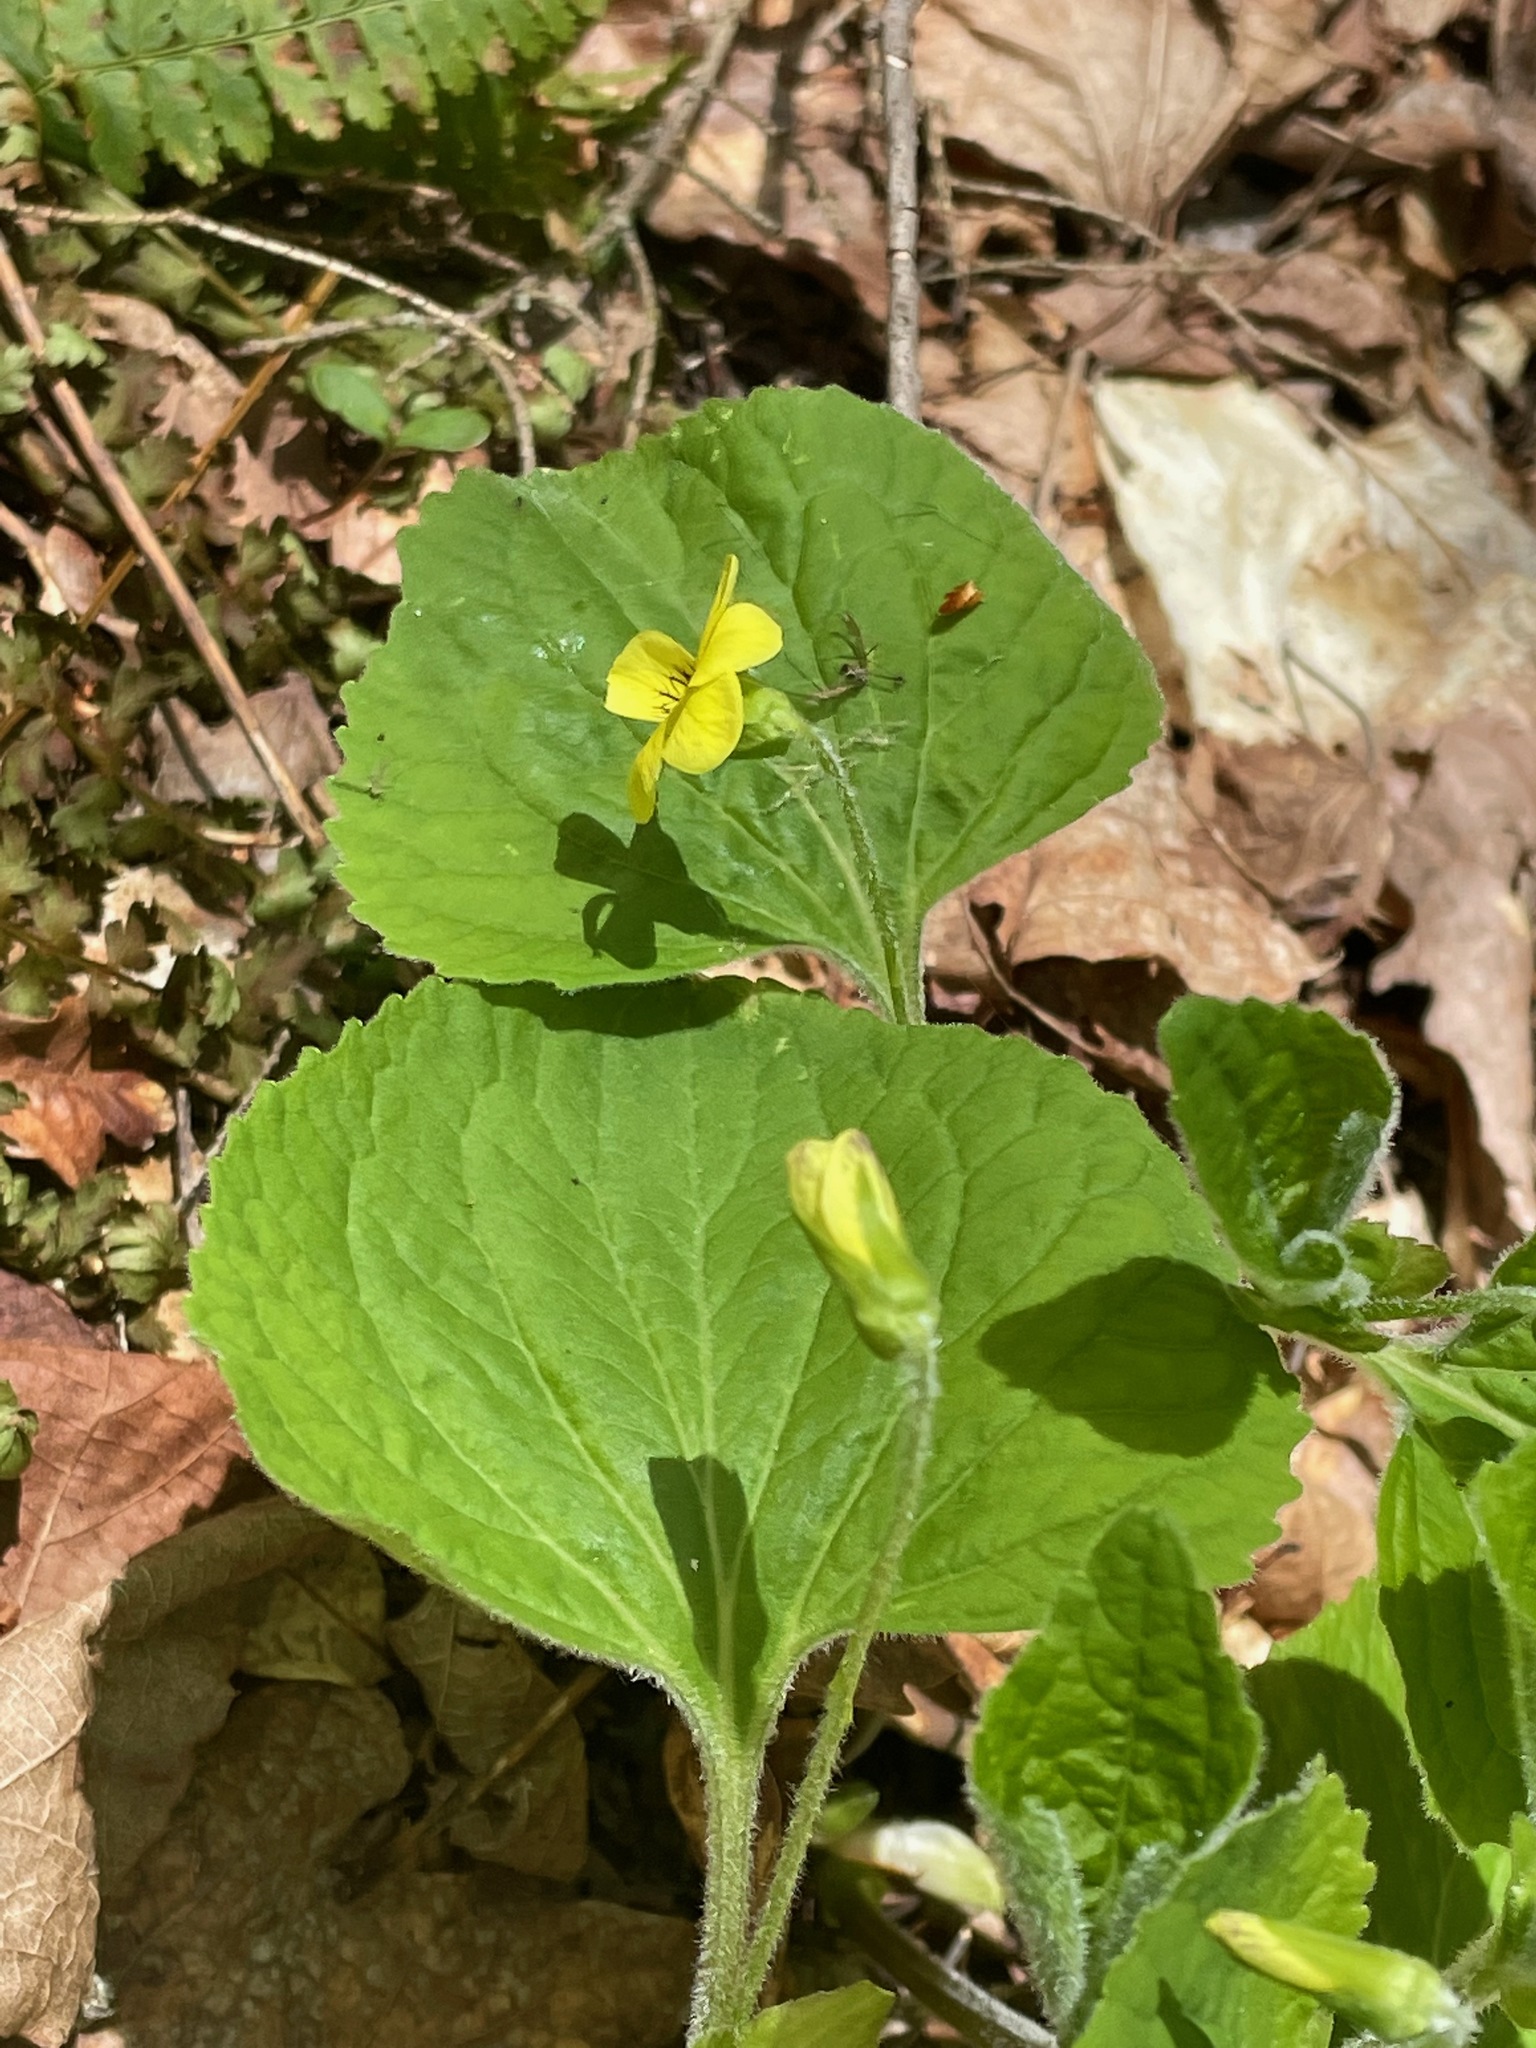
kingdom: Plantae
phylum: Tracheophyta
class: Magnoliopsida
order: Malpighiales
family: Violaceae
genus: Viola
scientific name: Viola pubescens
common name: Yellow forest violet
